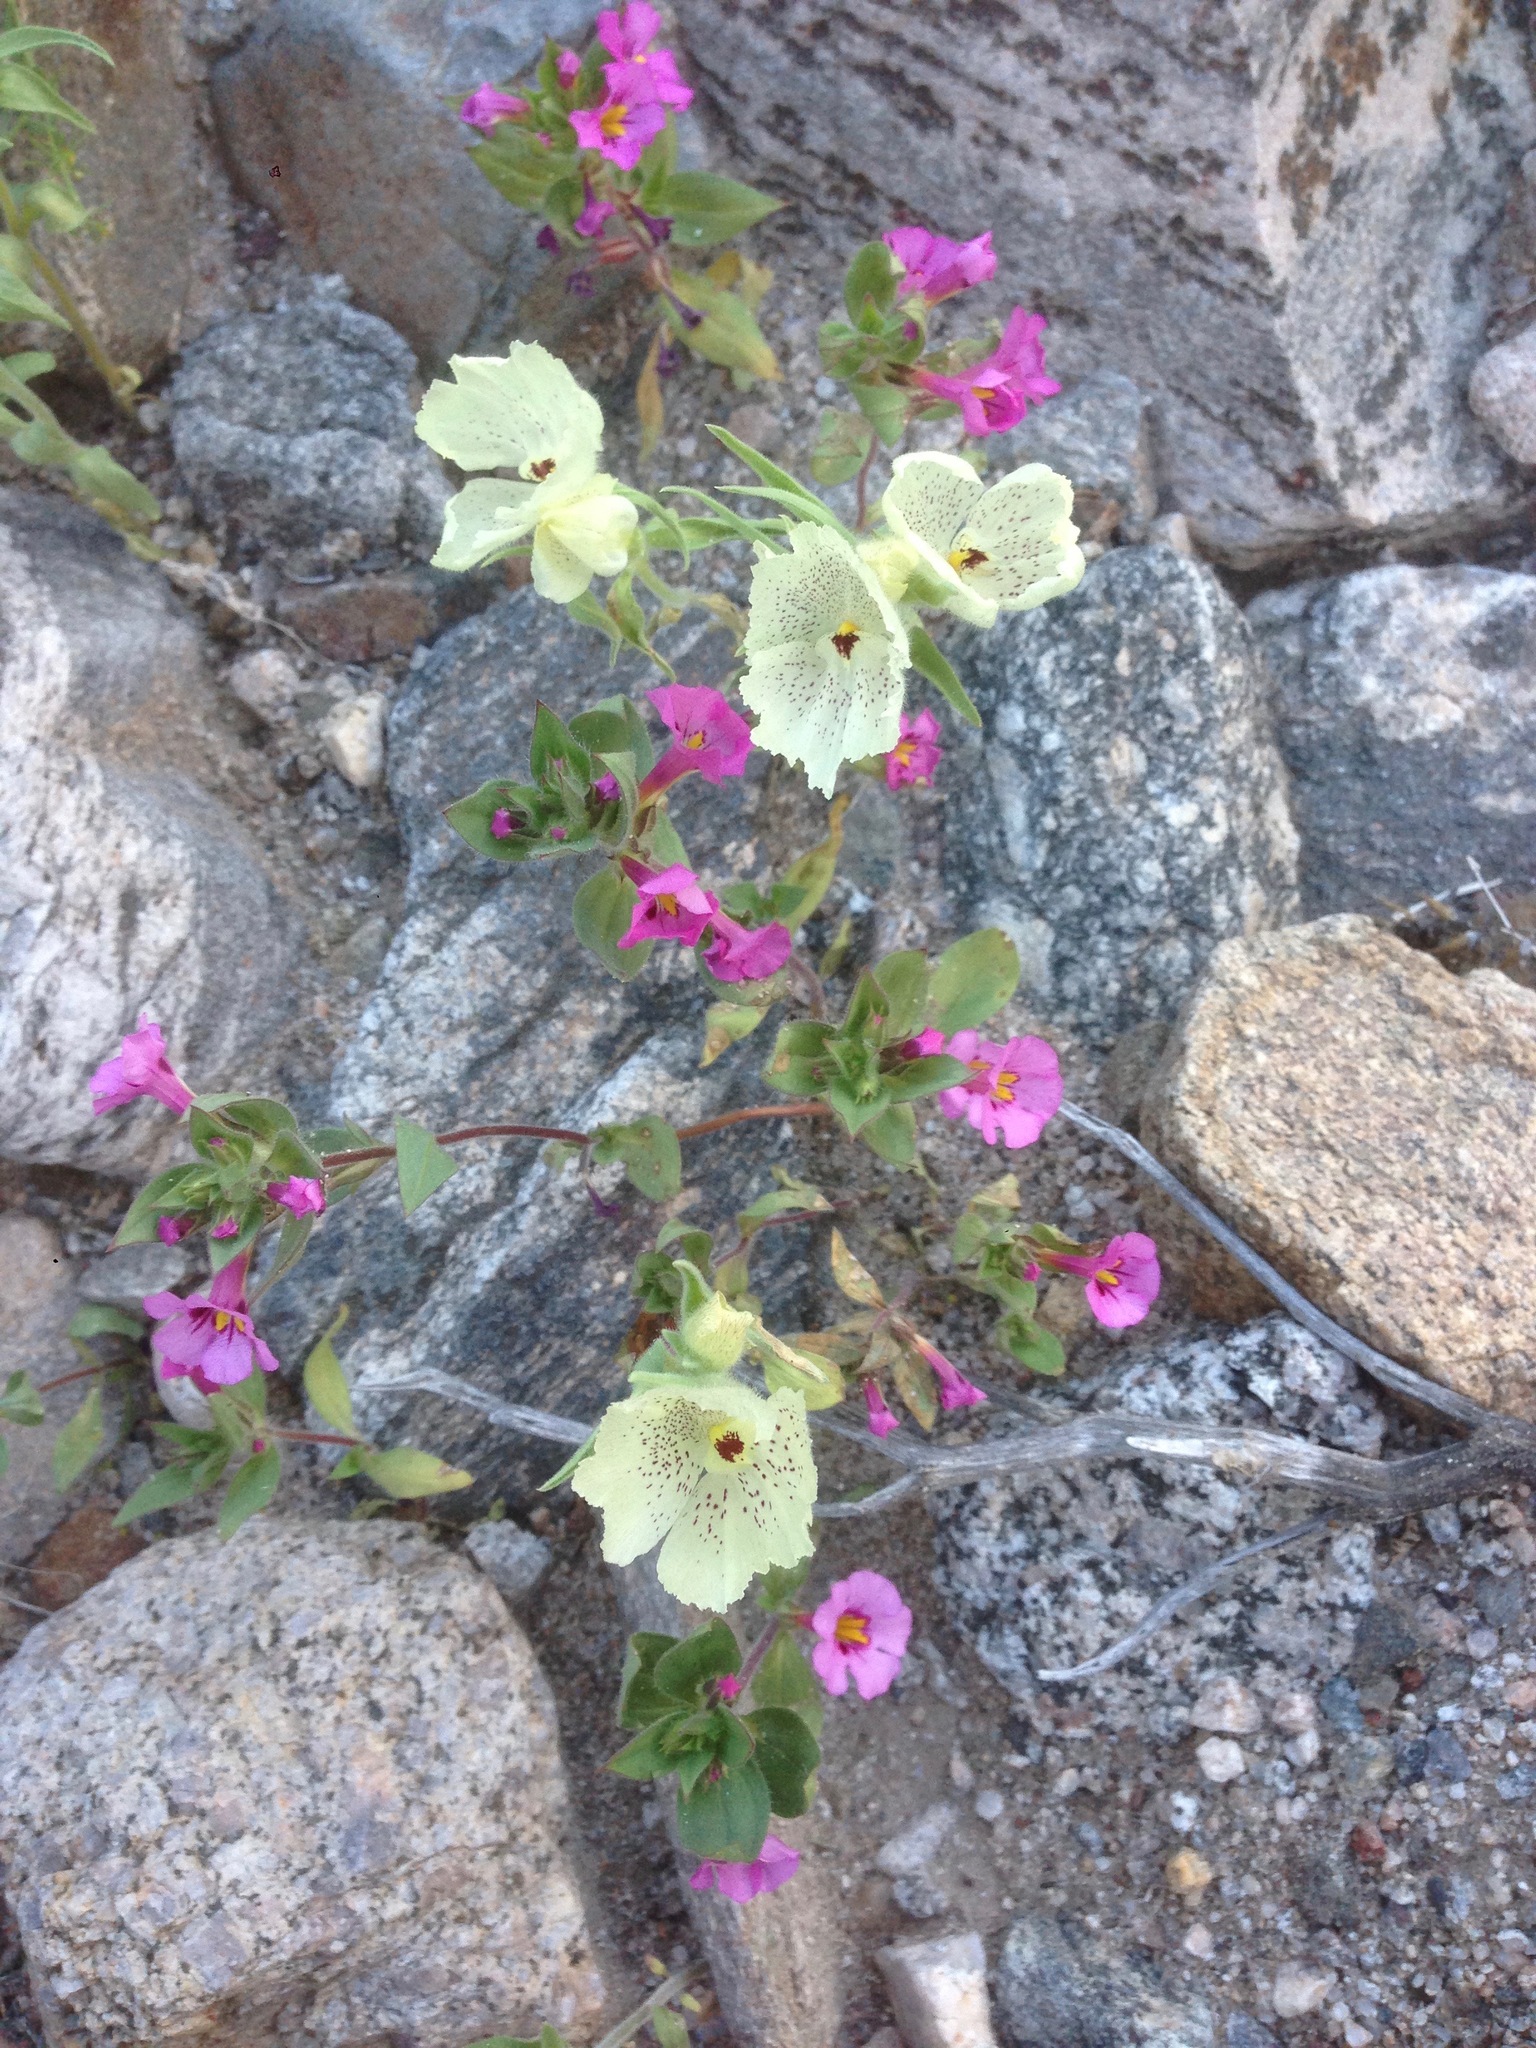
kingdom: Plantae
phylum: Tracheophyta
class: Magnoliopsida
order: Lamiales
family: Plantaginaceae
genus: Mohavea
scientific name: Mohavea confertiflora
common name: Ghost flower
